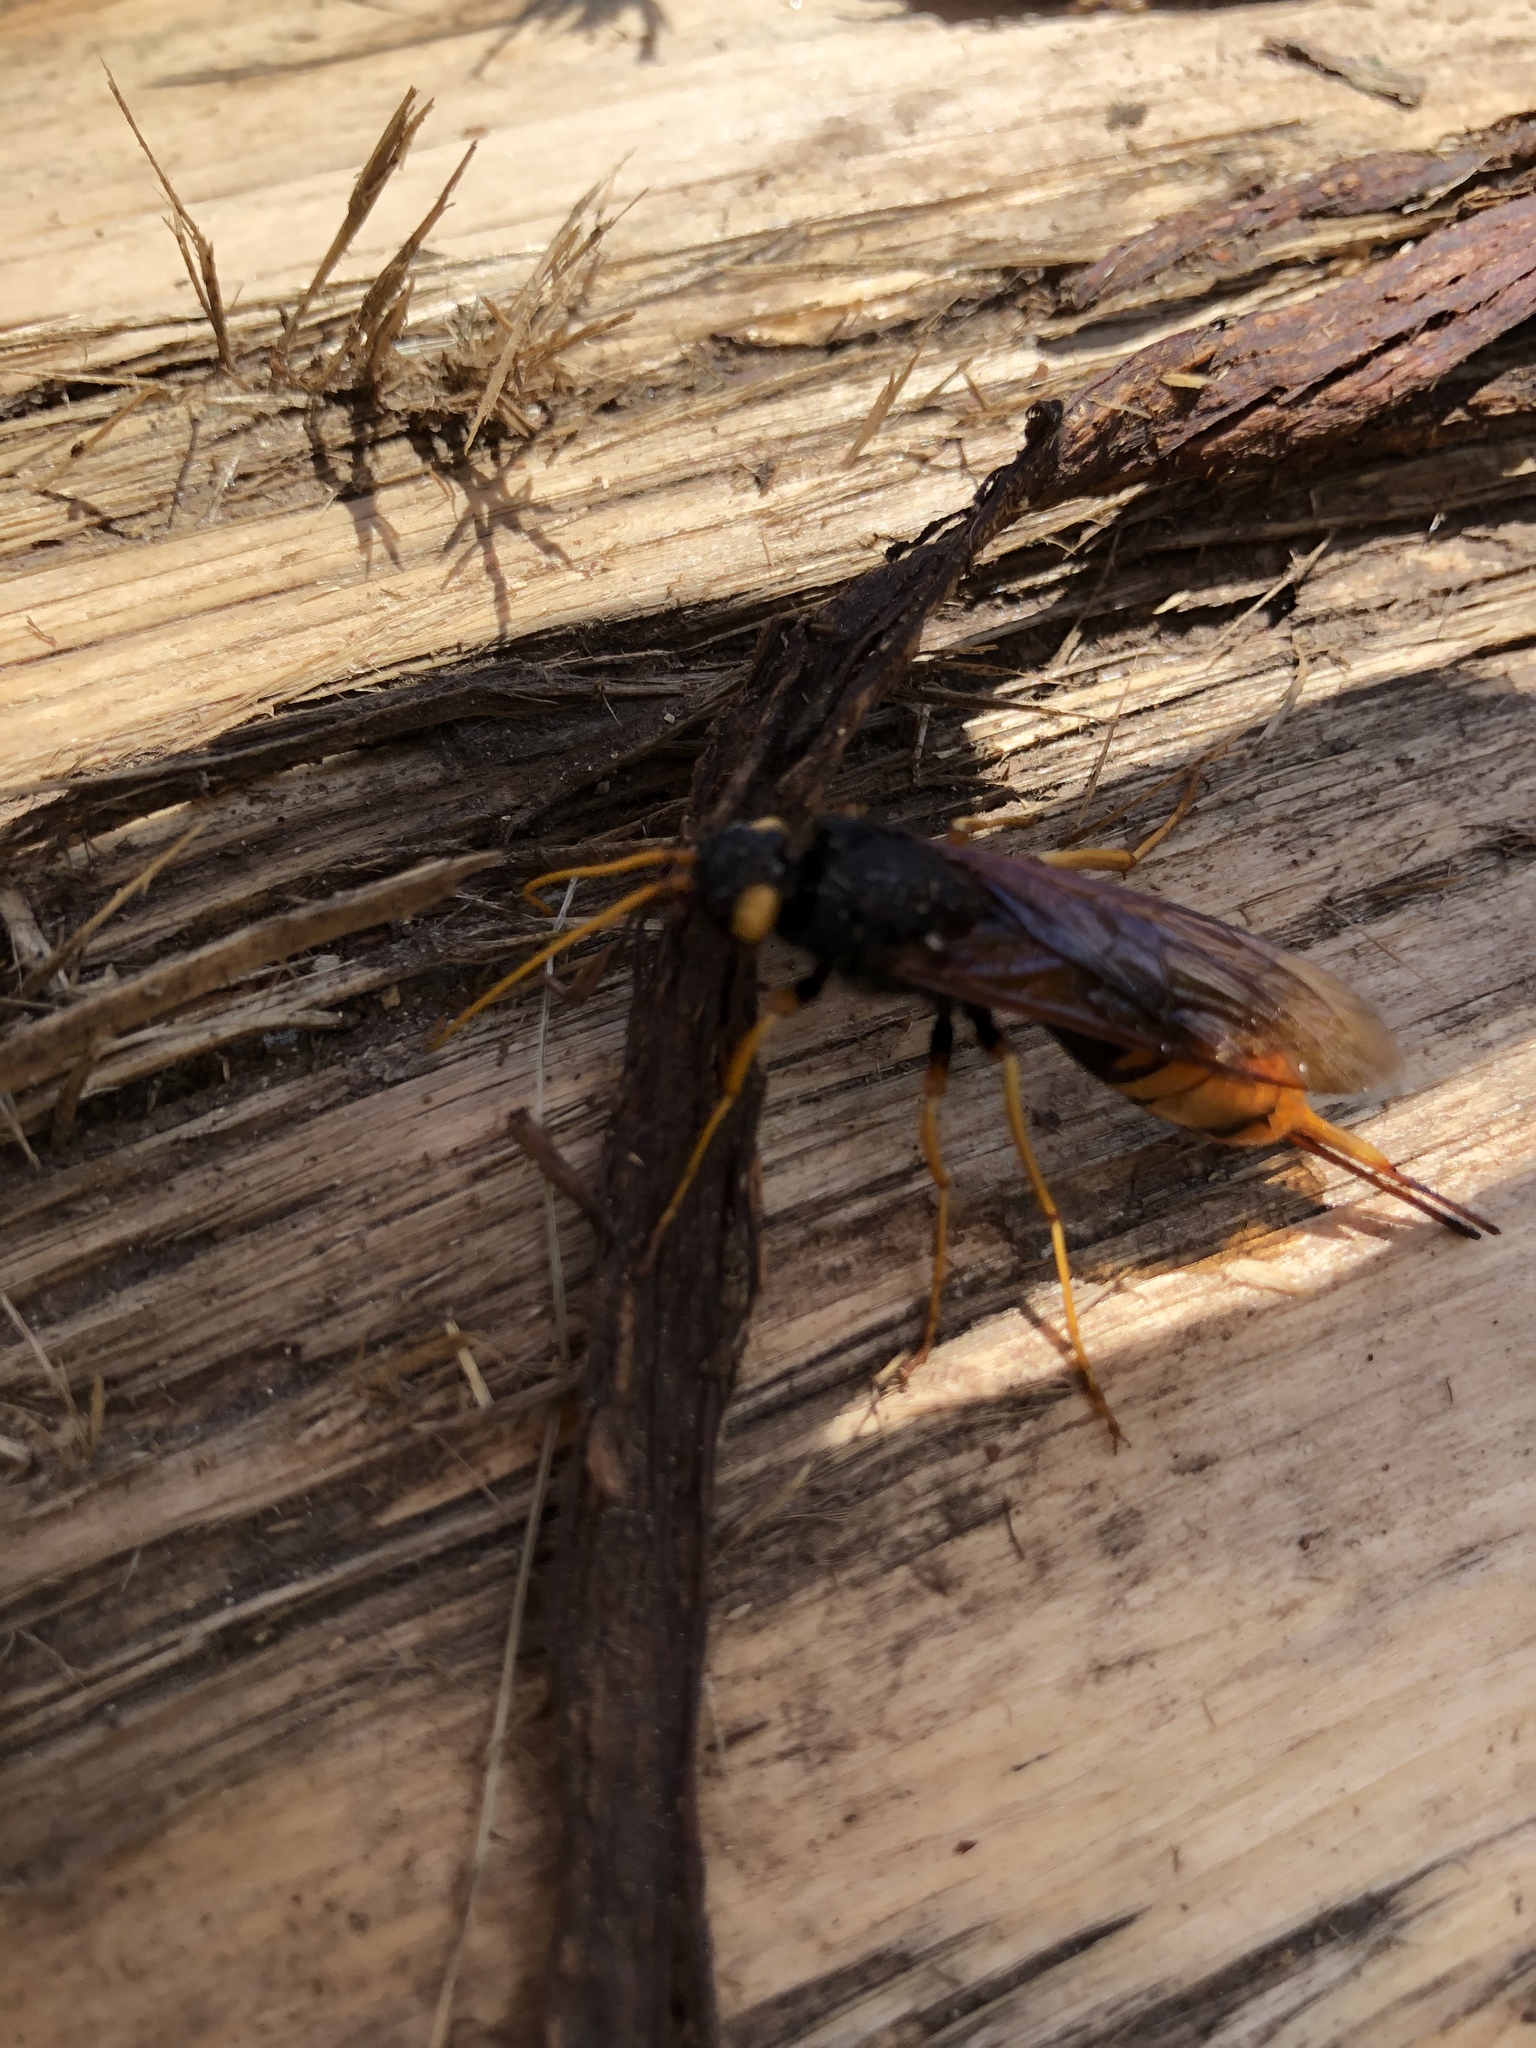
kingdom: Animalia
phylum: Arthropoda
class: Insecta
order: Hymenoptera
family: Siricidae
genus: Urocerus
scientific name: Urocerus gigas
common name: Giant woodwasp
